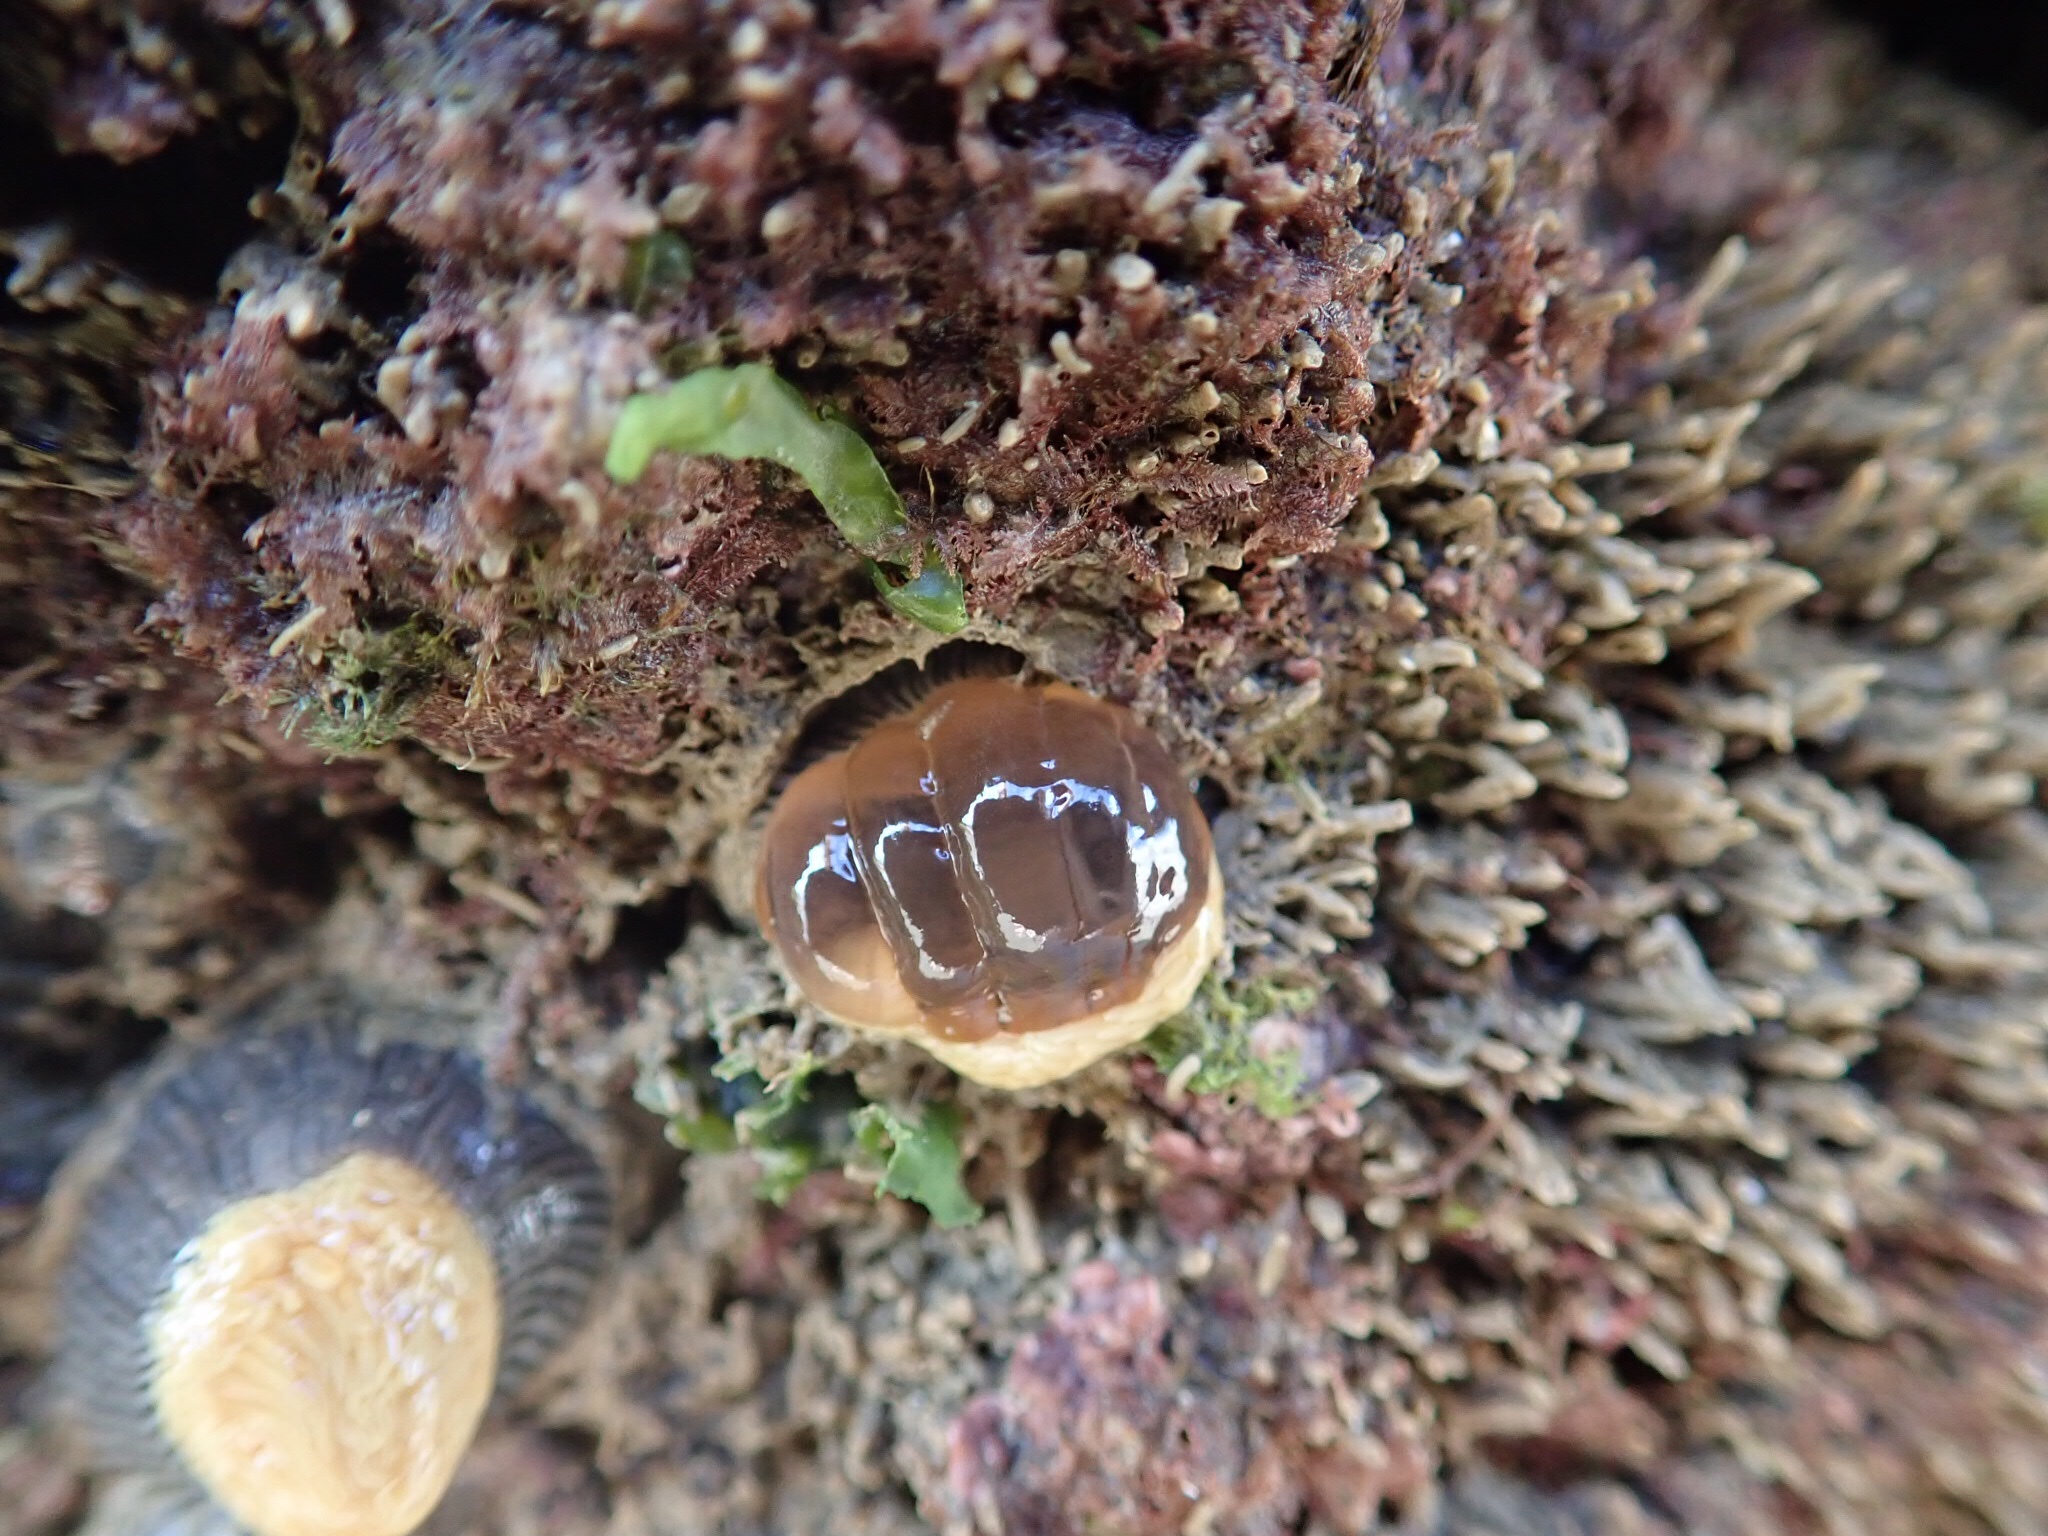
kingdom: Animalia
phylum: Cnidaria
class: Anthozoa
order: Actiniaria
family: Diadumenidae
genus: Diadumene
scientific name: Diadumene neozelanica
